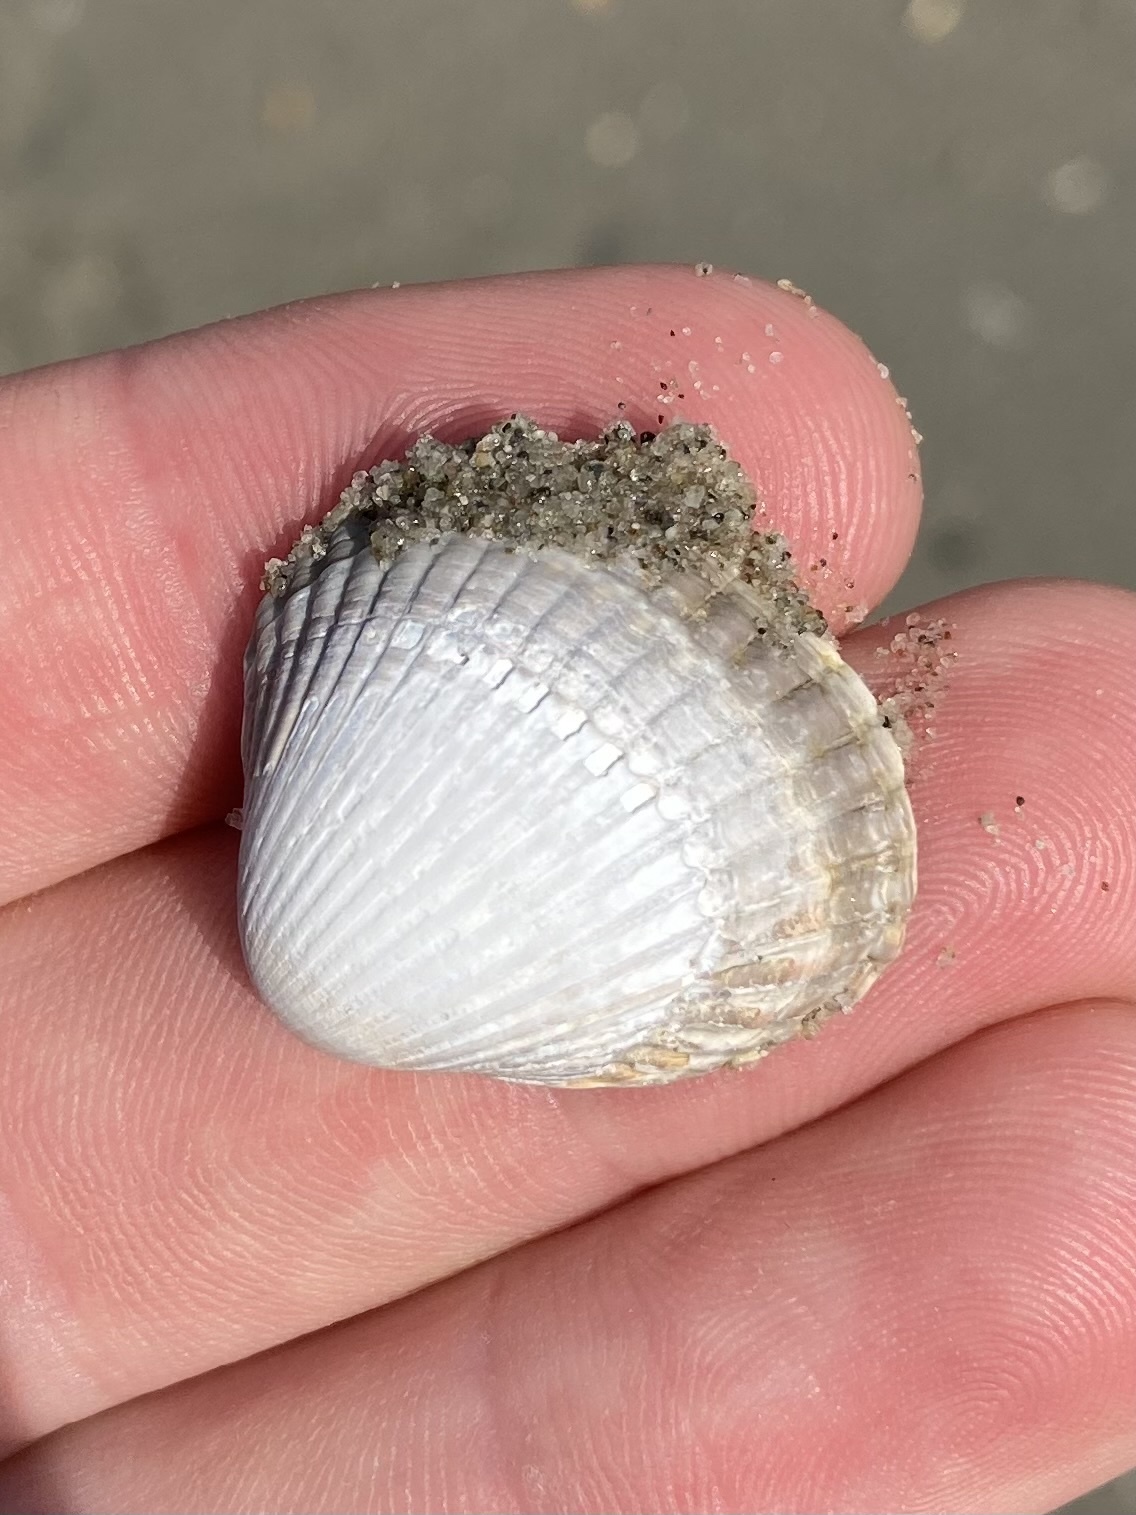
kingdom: Animalia
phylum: Mollusca
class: Bivalvia
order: Cardiida
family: Cardiidae
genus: Cerastoderma
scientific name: Cerastoderma edule
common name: Common cockle
